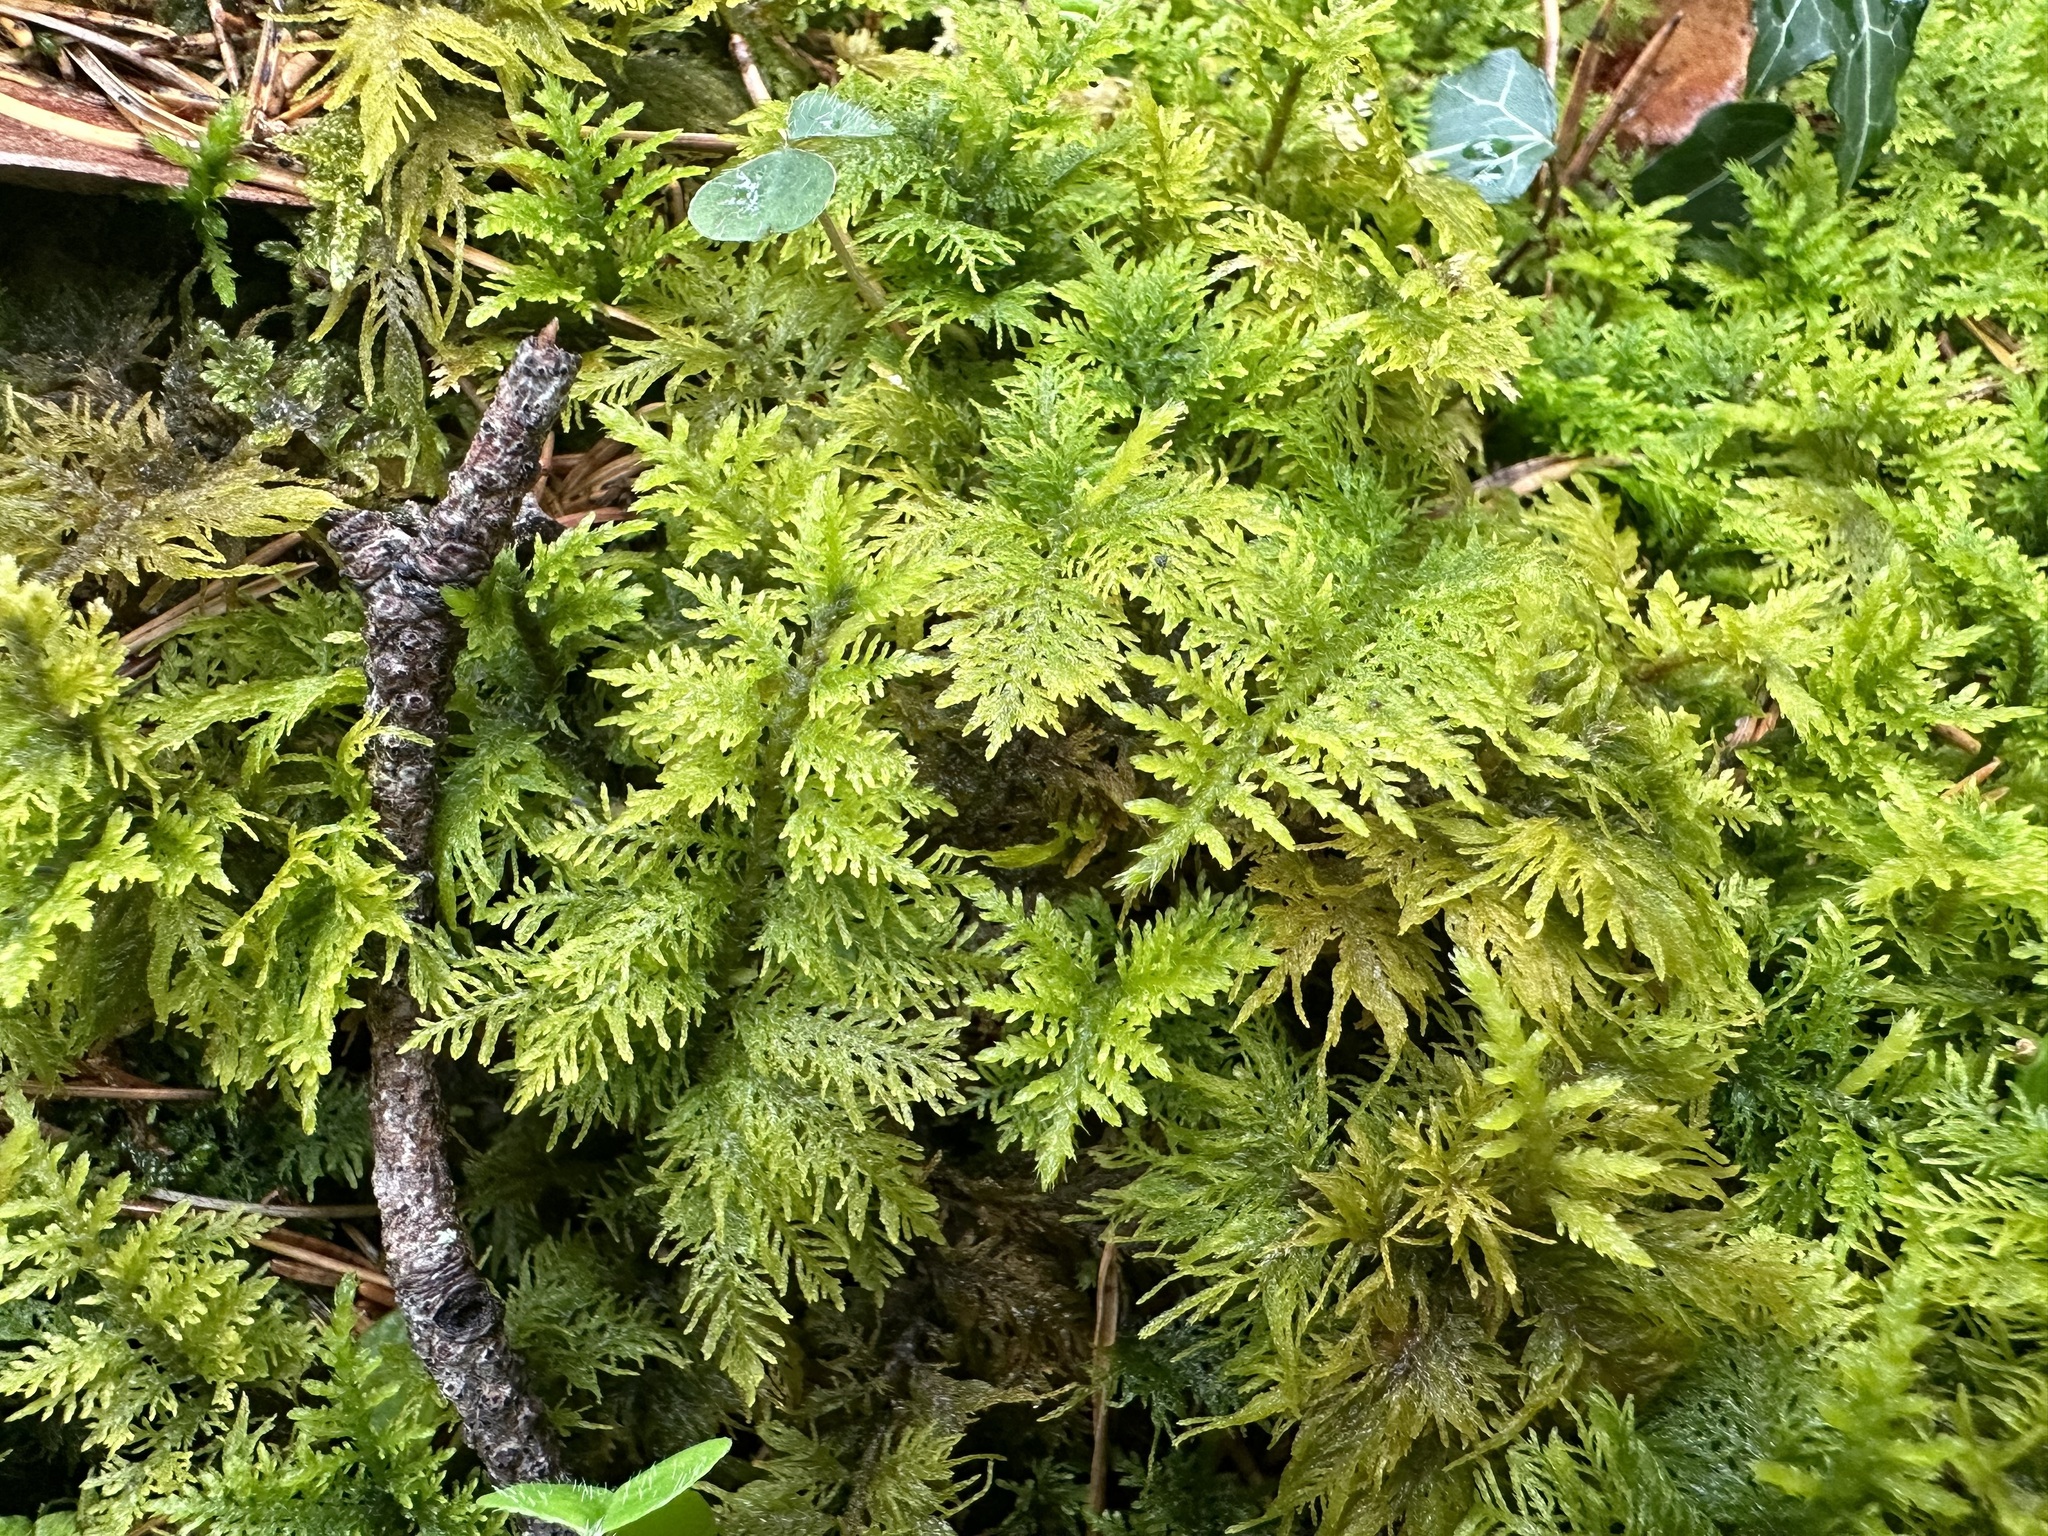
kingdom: Plantae
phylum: Bryophyta
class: Bryopsida
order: Hypnales
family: Thuidiaceae
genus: Thuidium
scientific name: Thuidium tamariscinum
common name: Common tamarisk-moss
